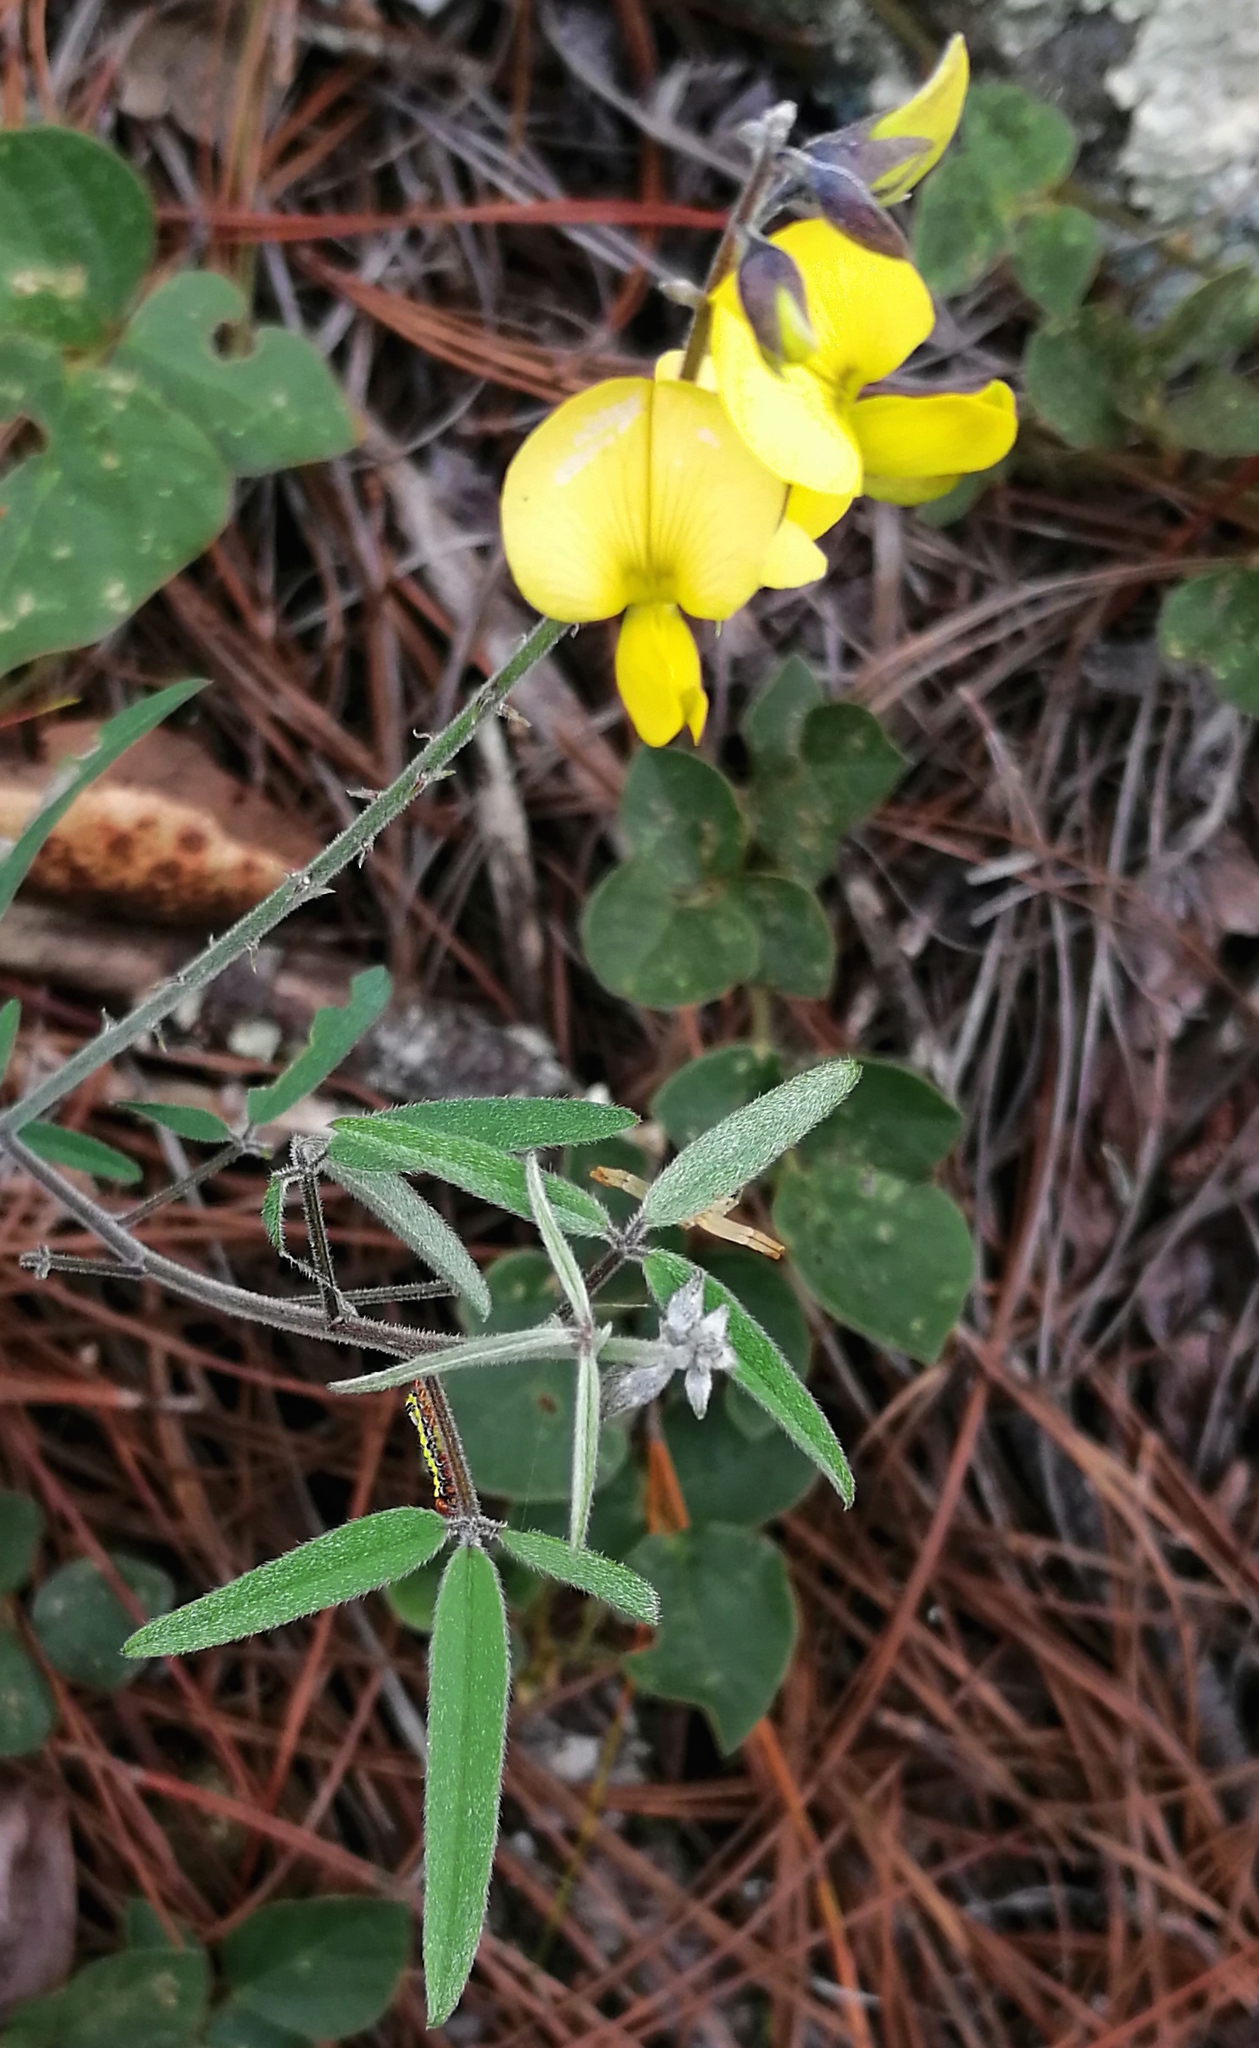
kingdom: Plantae
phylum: Tracheophyta
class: Magnoliopsida
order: Fabales
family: Fabaceae
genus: Crotalaria
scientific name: Crotalaria mollicula
